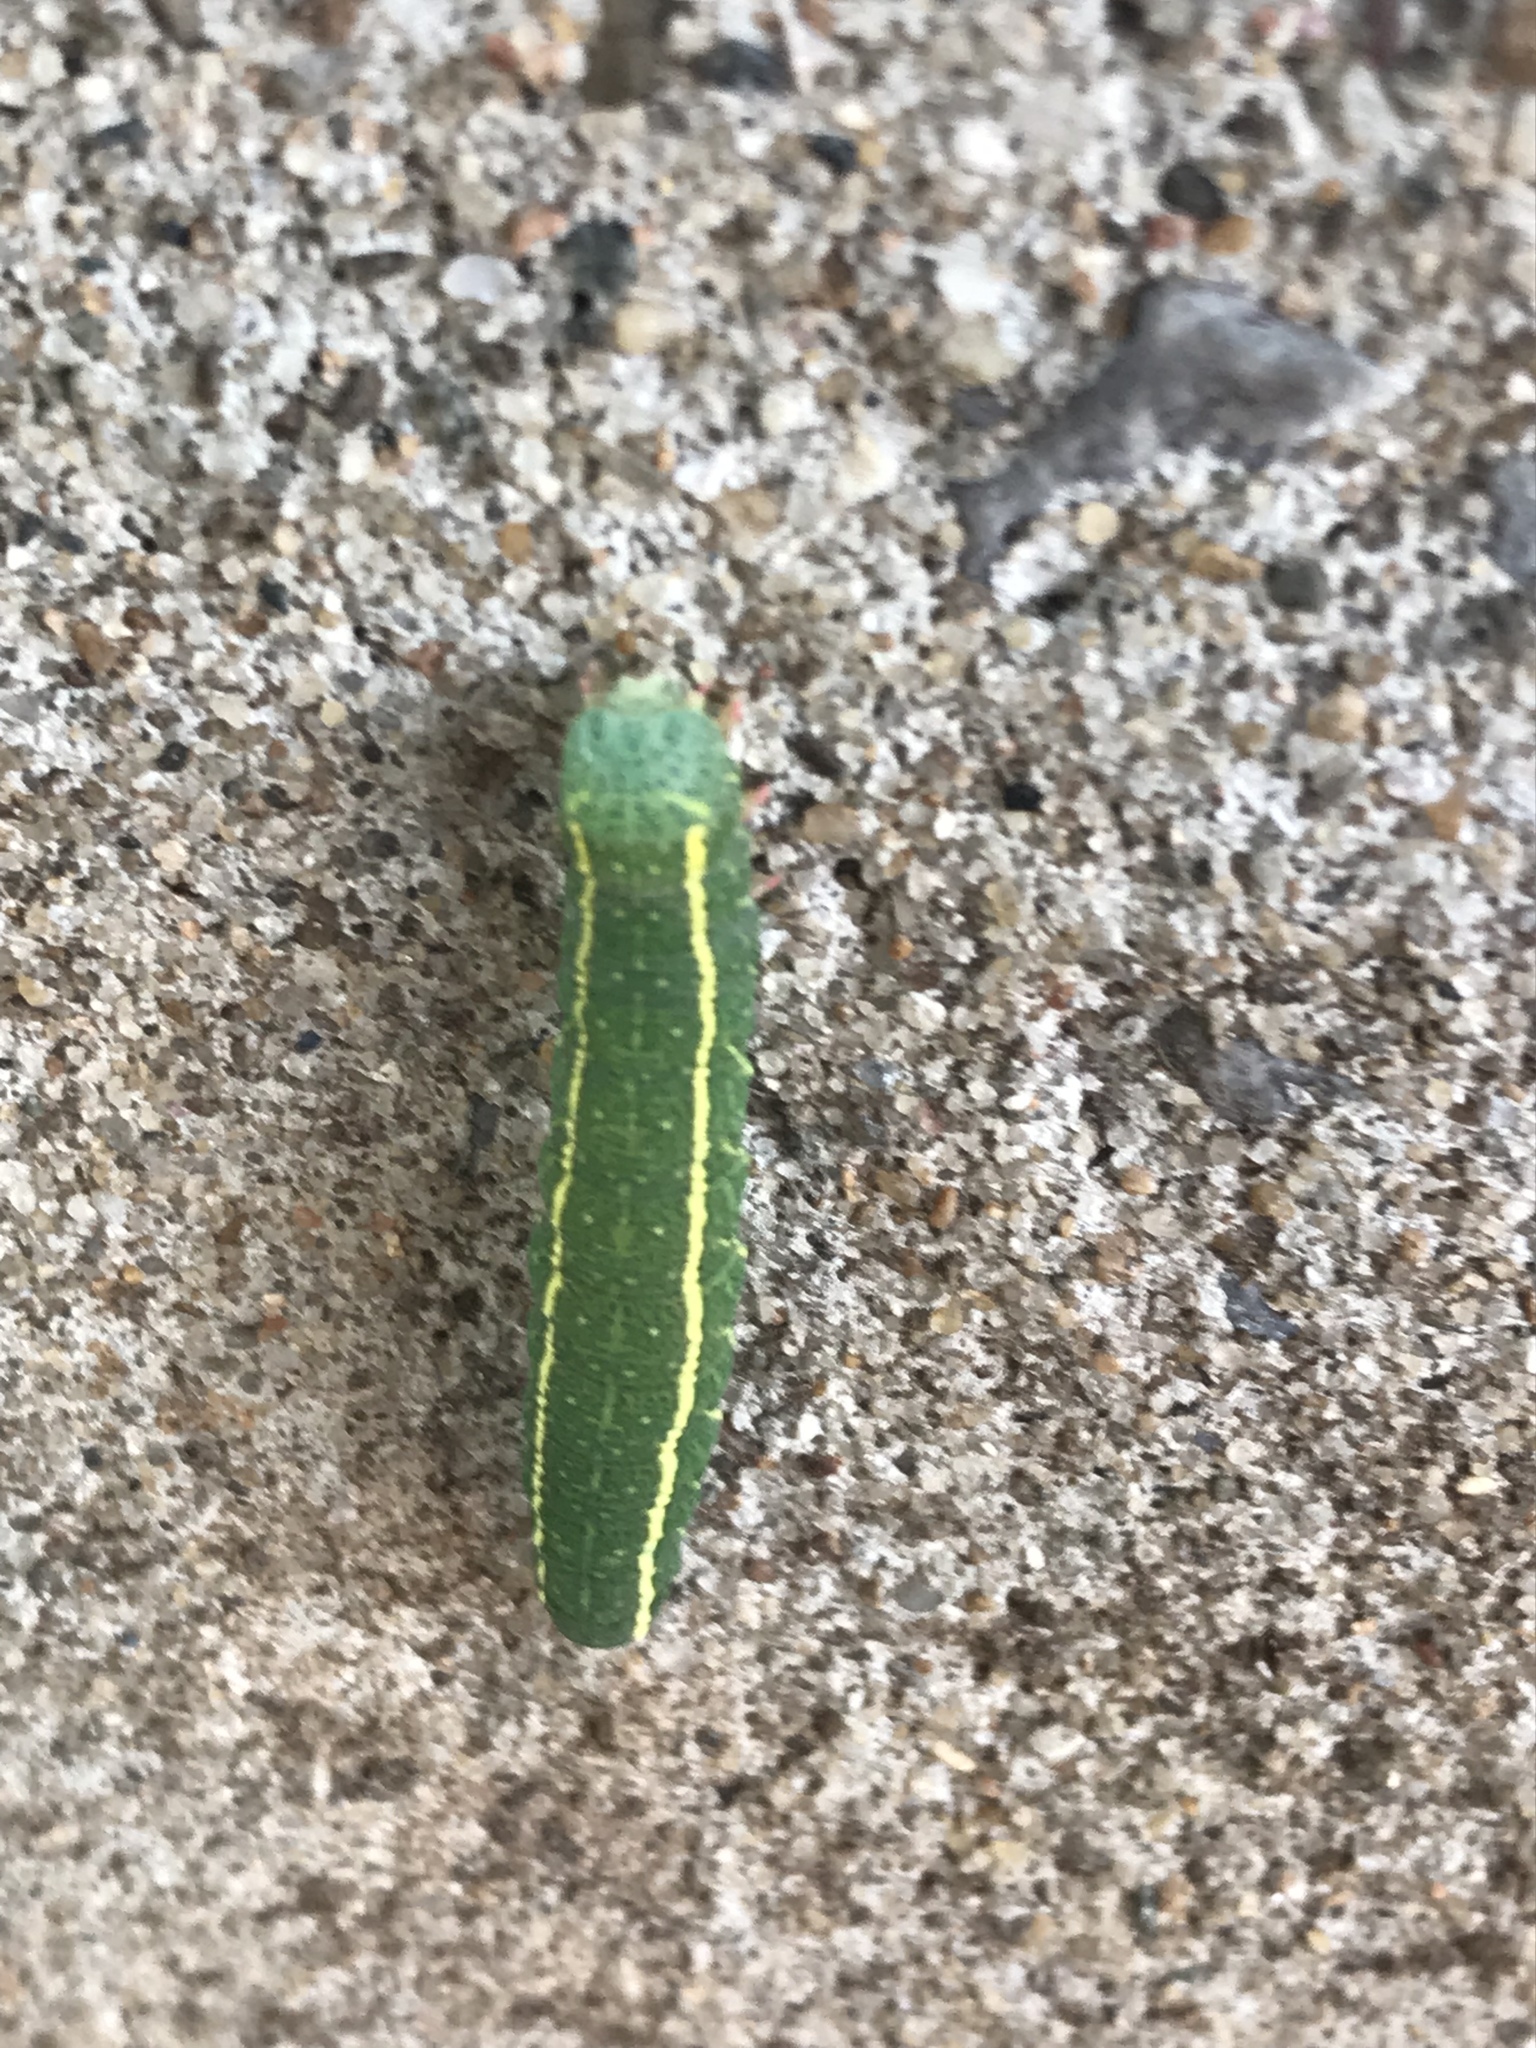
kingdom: Animalia
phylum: Arthropoda
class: Insecta
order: Lepidoptera
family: Erebidae
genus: Panopoda
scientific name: Panopoda rufimargo
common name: Red-lined panopoda moth
